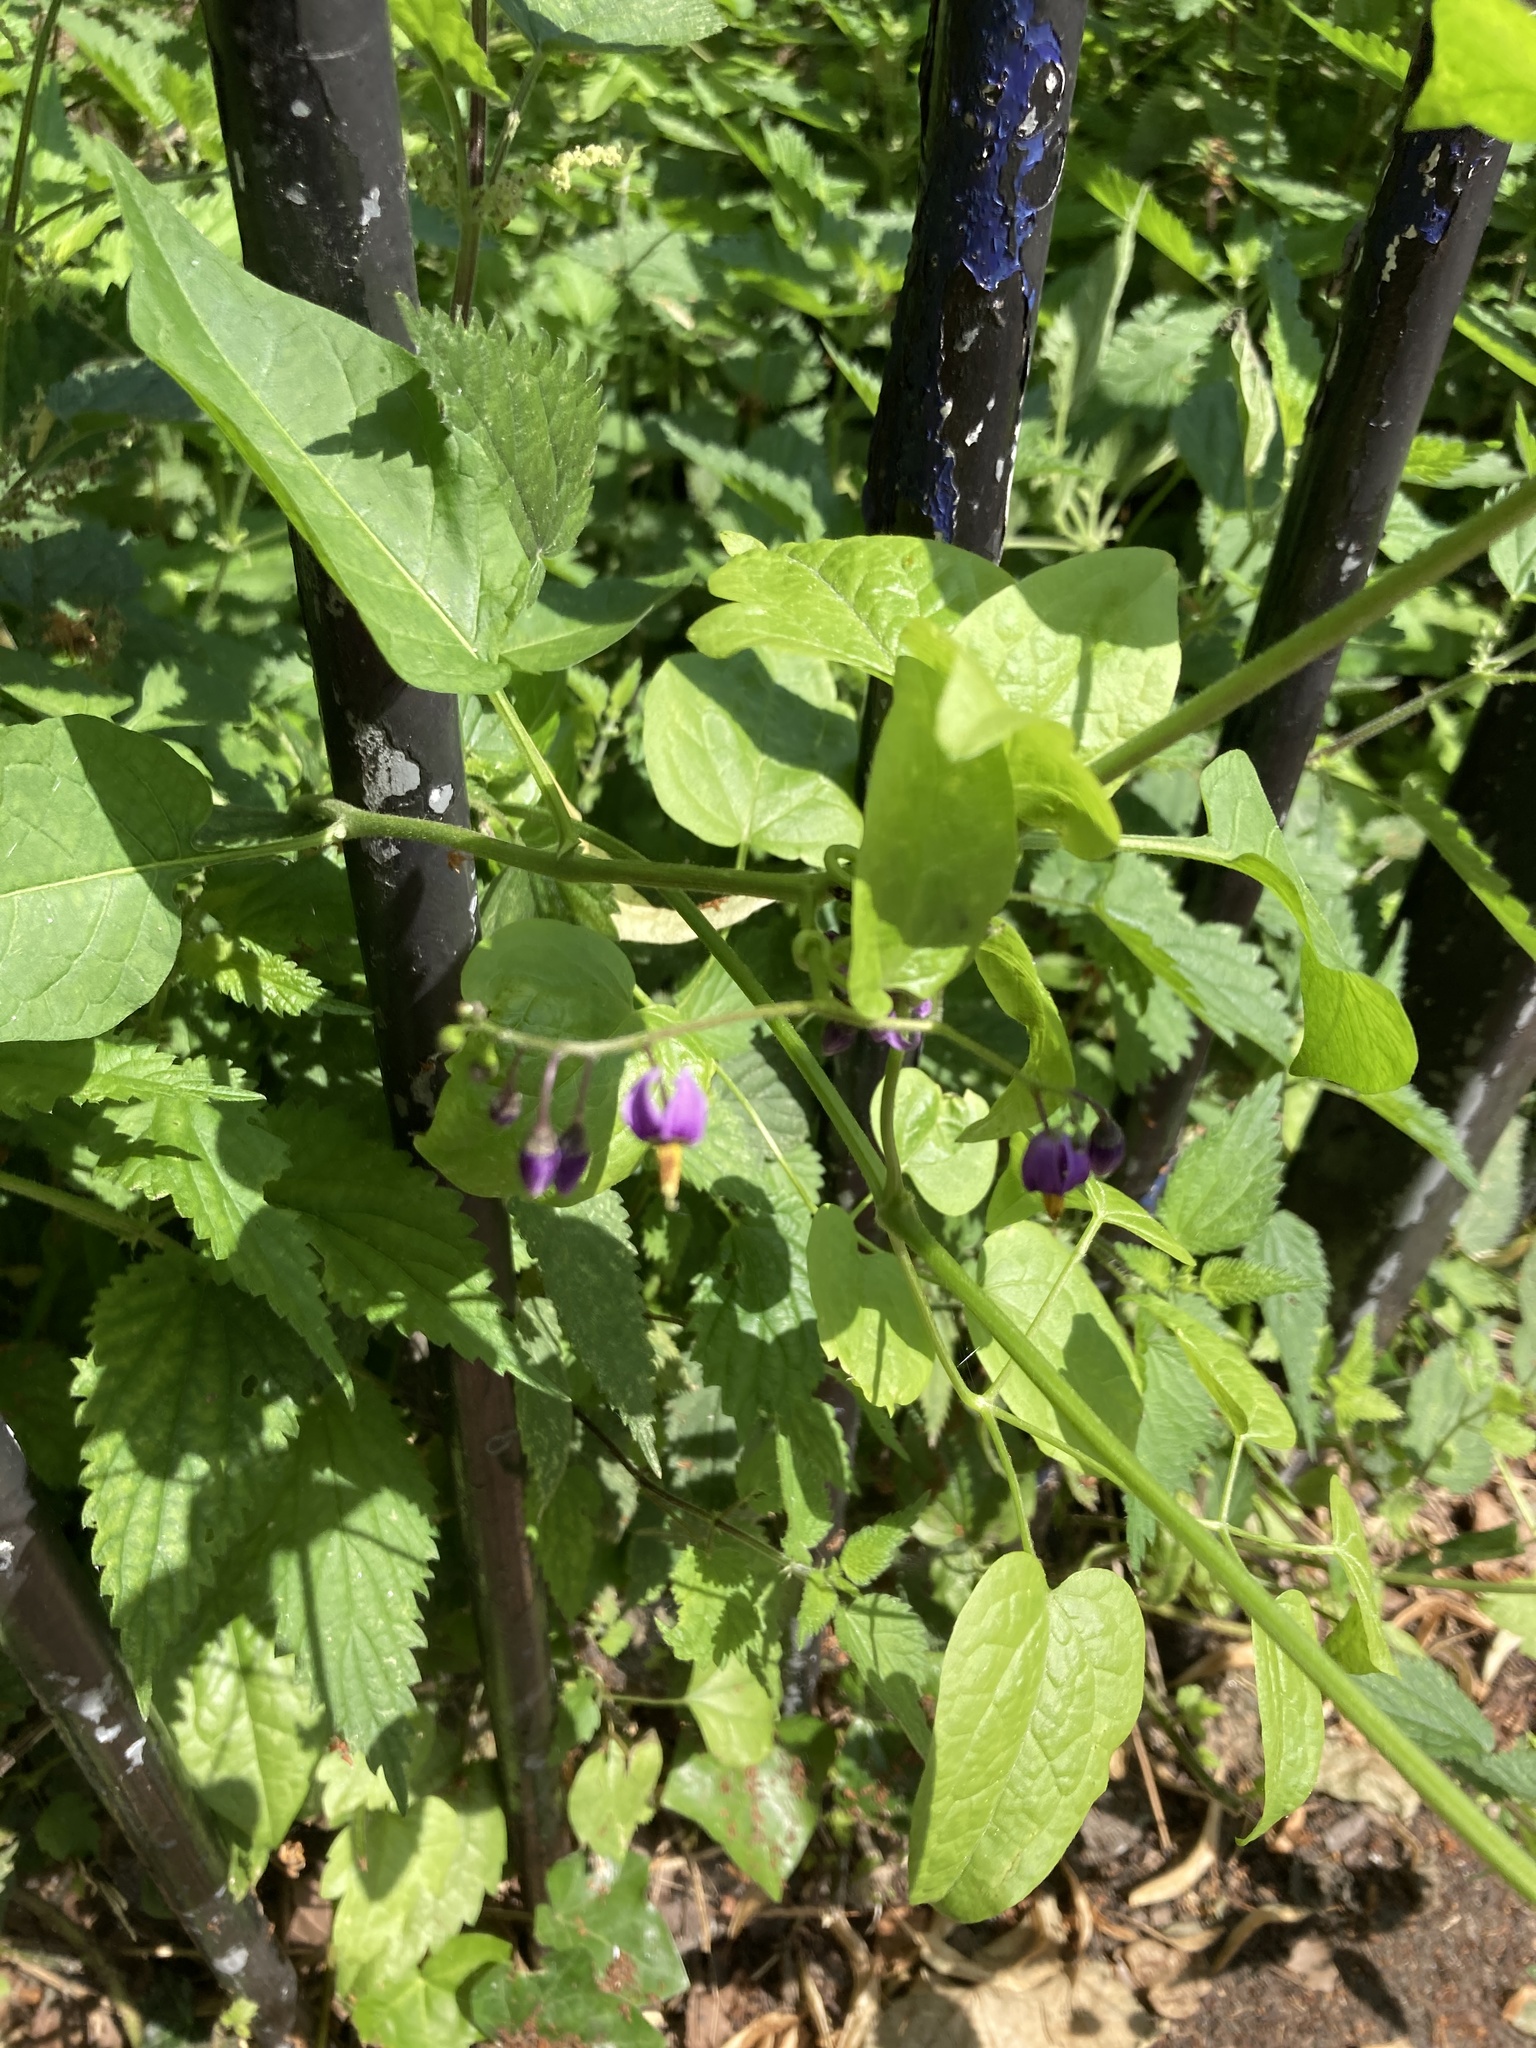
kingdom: Plantae
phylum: Tracheophyta
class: Magnoliopsida
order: Solanales
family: Solanaceae
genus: Solanum
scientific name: Solanum dulcamara
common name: Climbing nightshade
